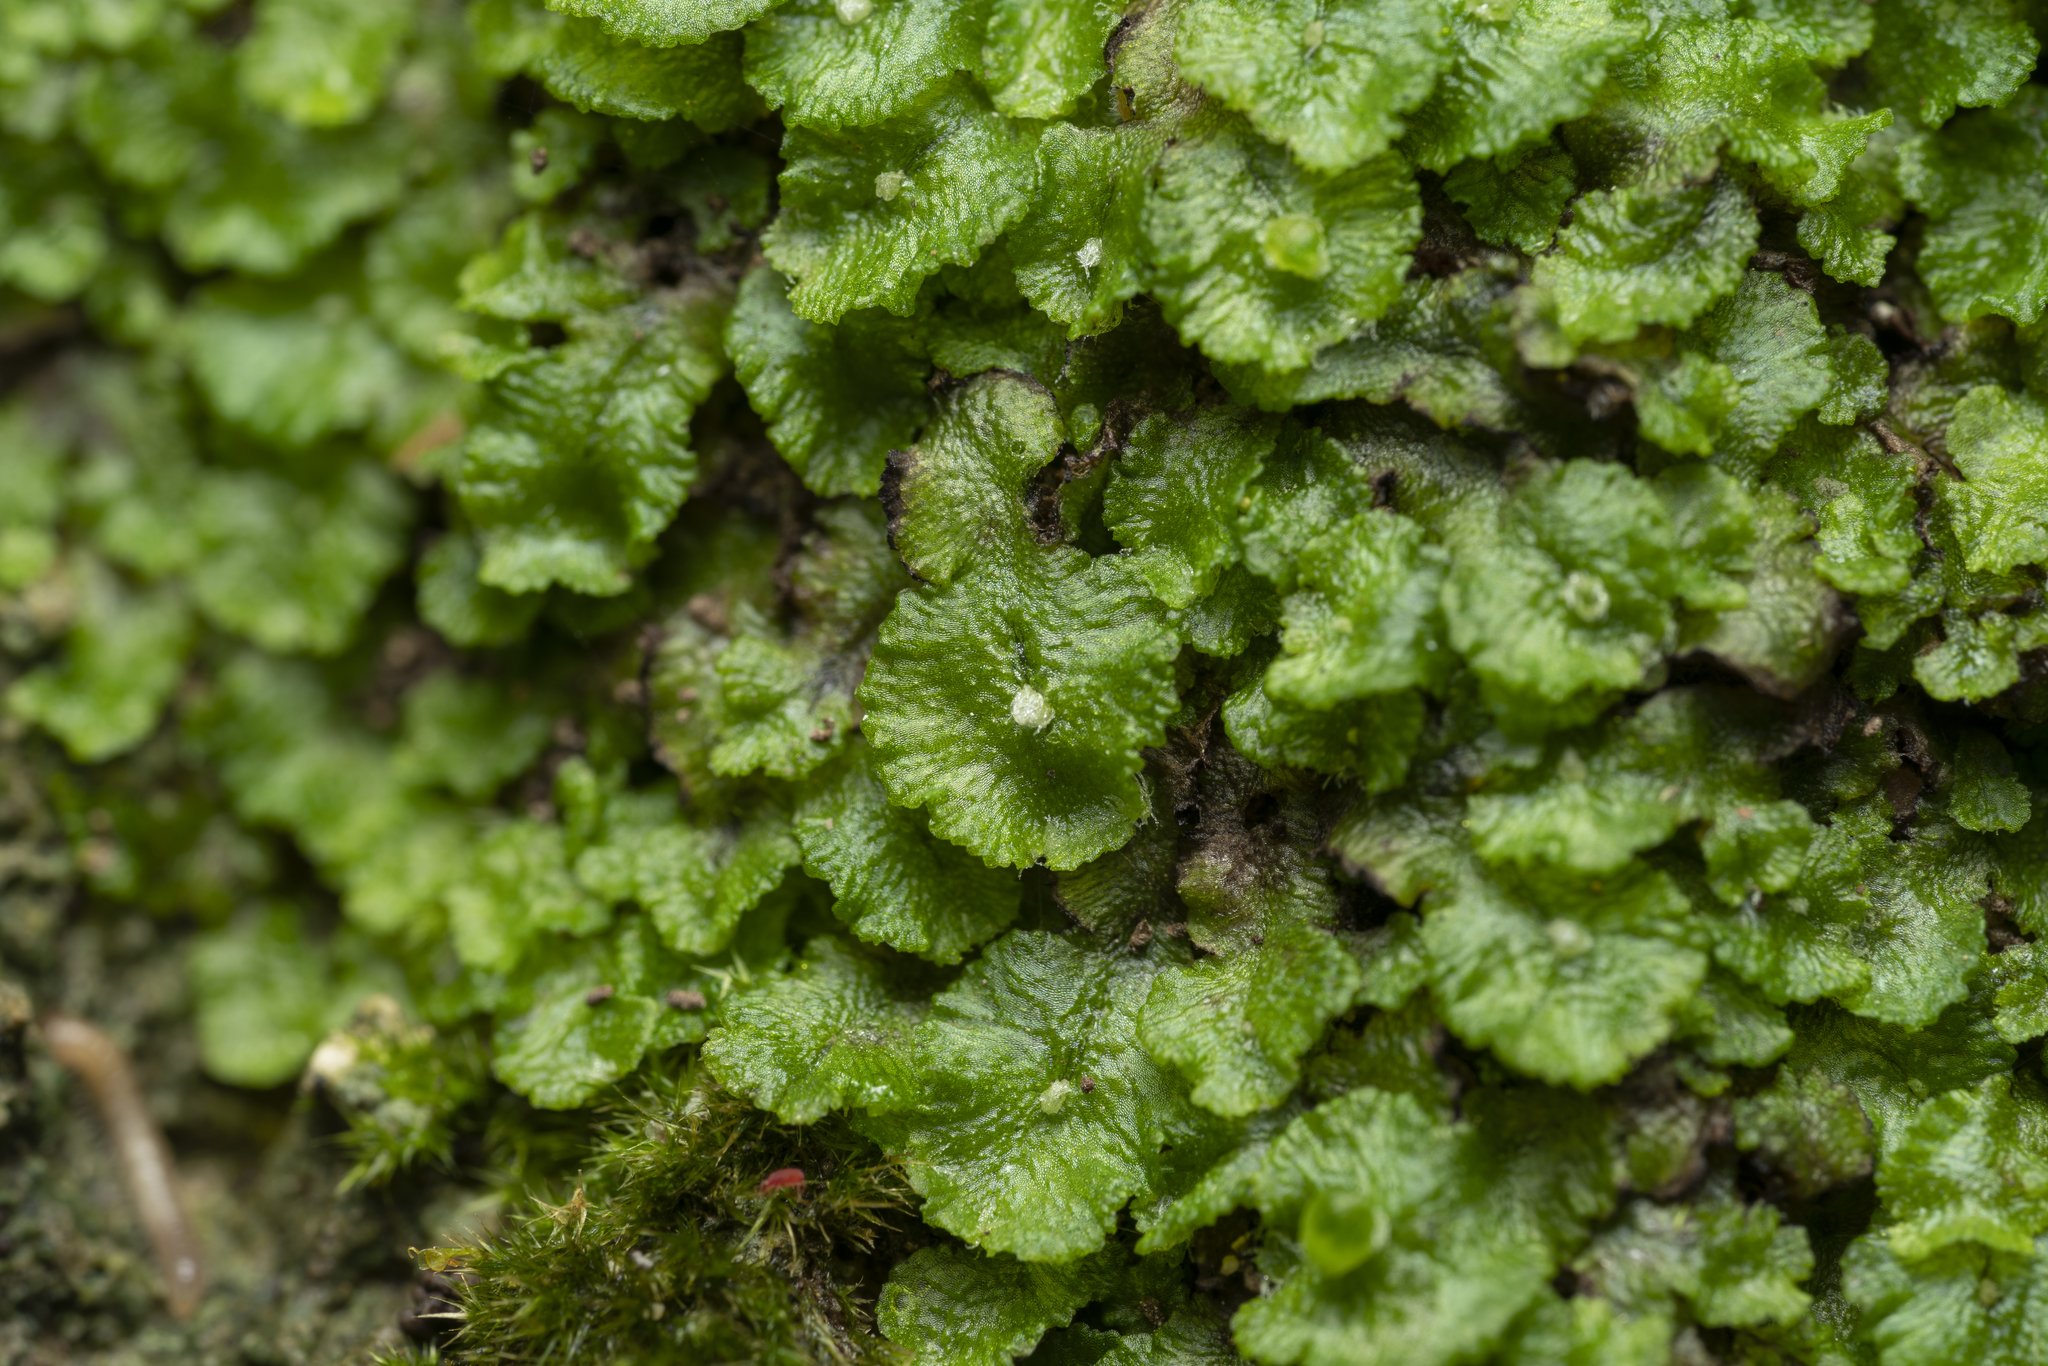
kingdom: Plantae
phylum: Marchantiophyta
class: Marchantiopsida
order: Marchantiales
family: Cleveaceae
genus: Clevea
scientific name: Clevea spathysii
